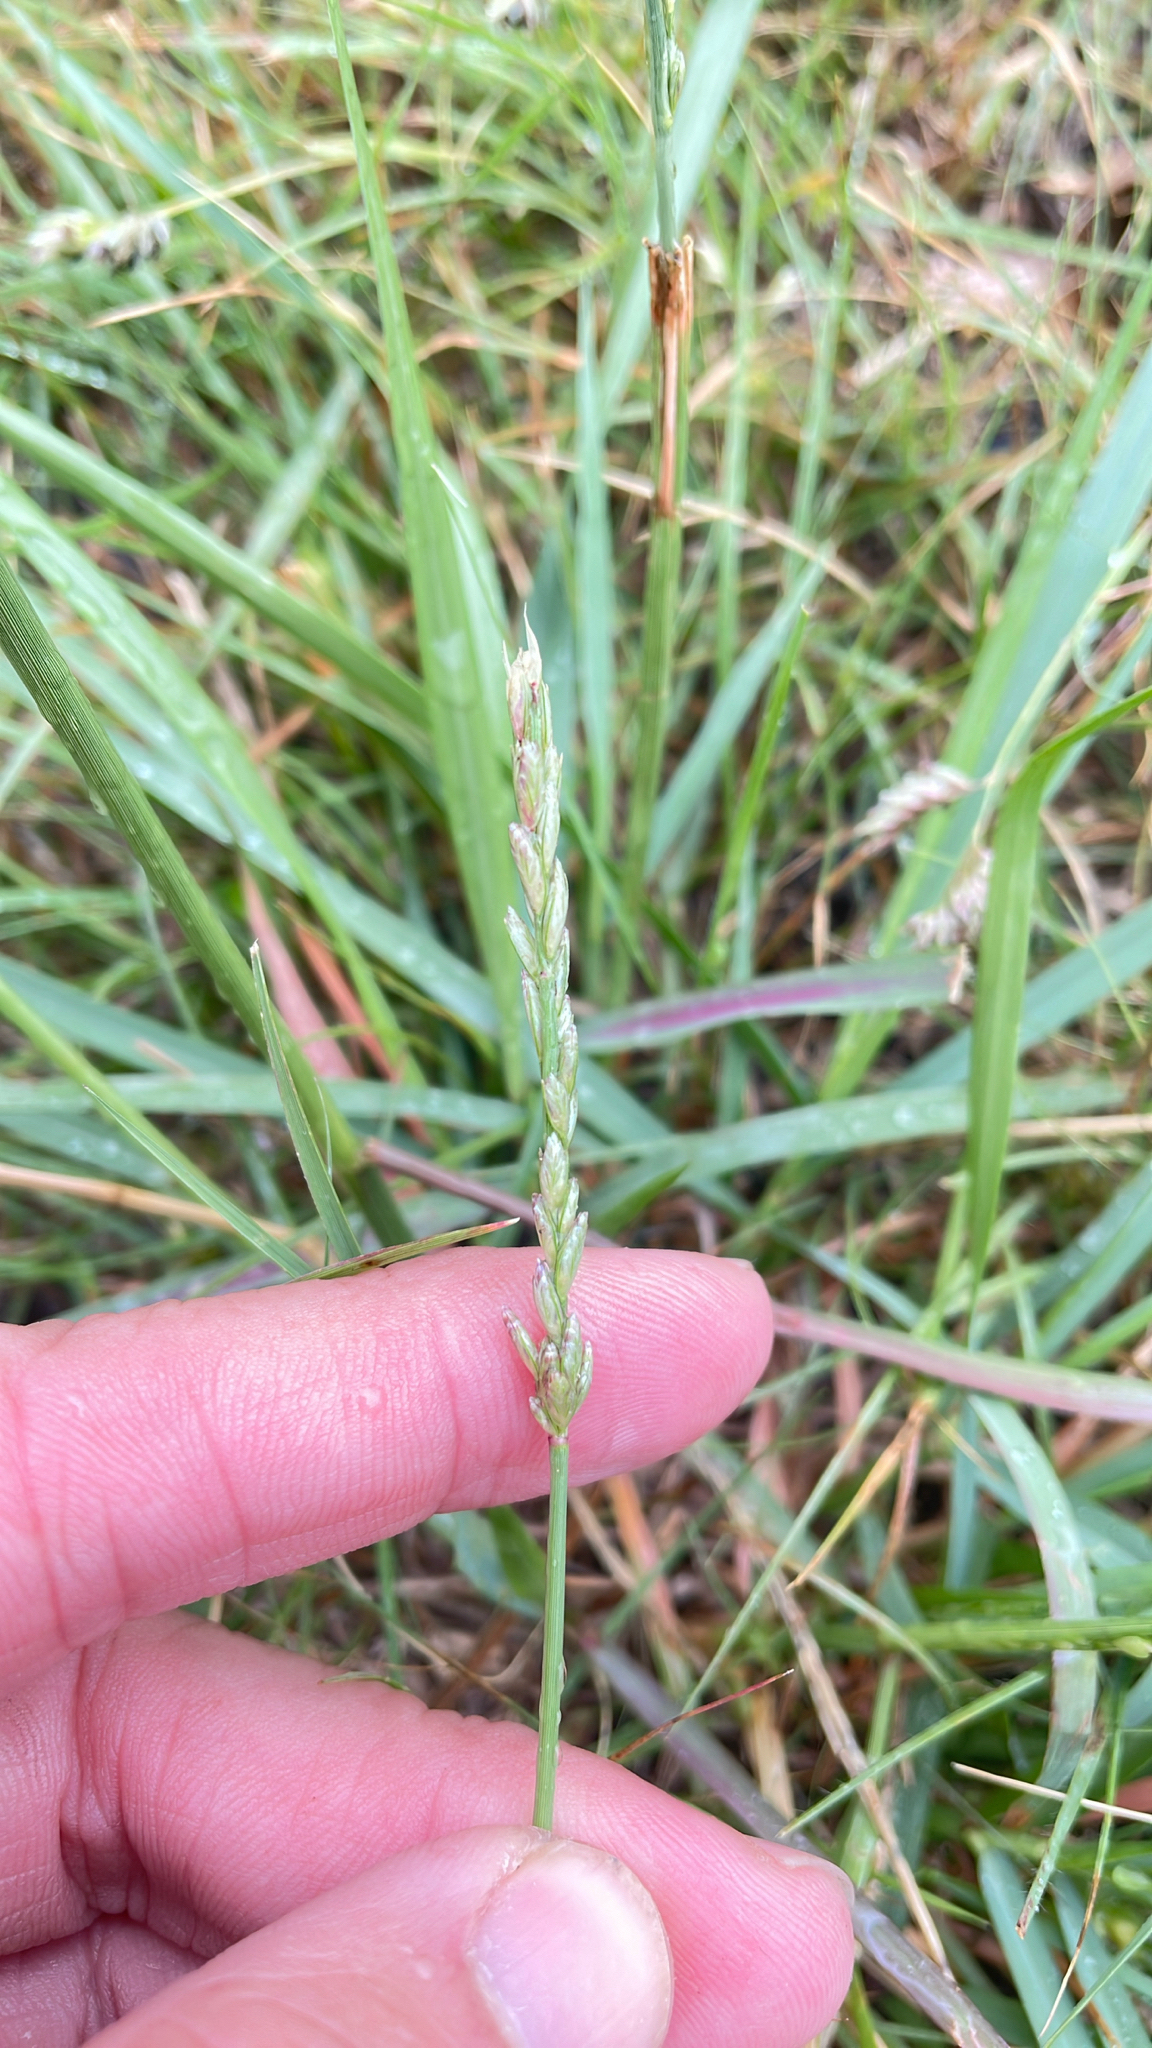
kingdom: Plantae
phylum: Tracheophyta
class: Liliopsida
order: Poales
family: Poaceae
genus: Tridens
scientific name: Tridens albescens
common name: White tridens
